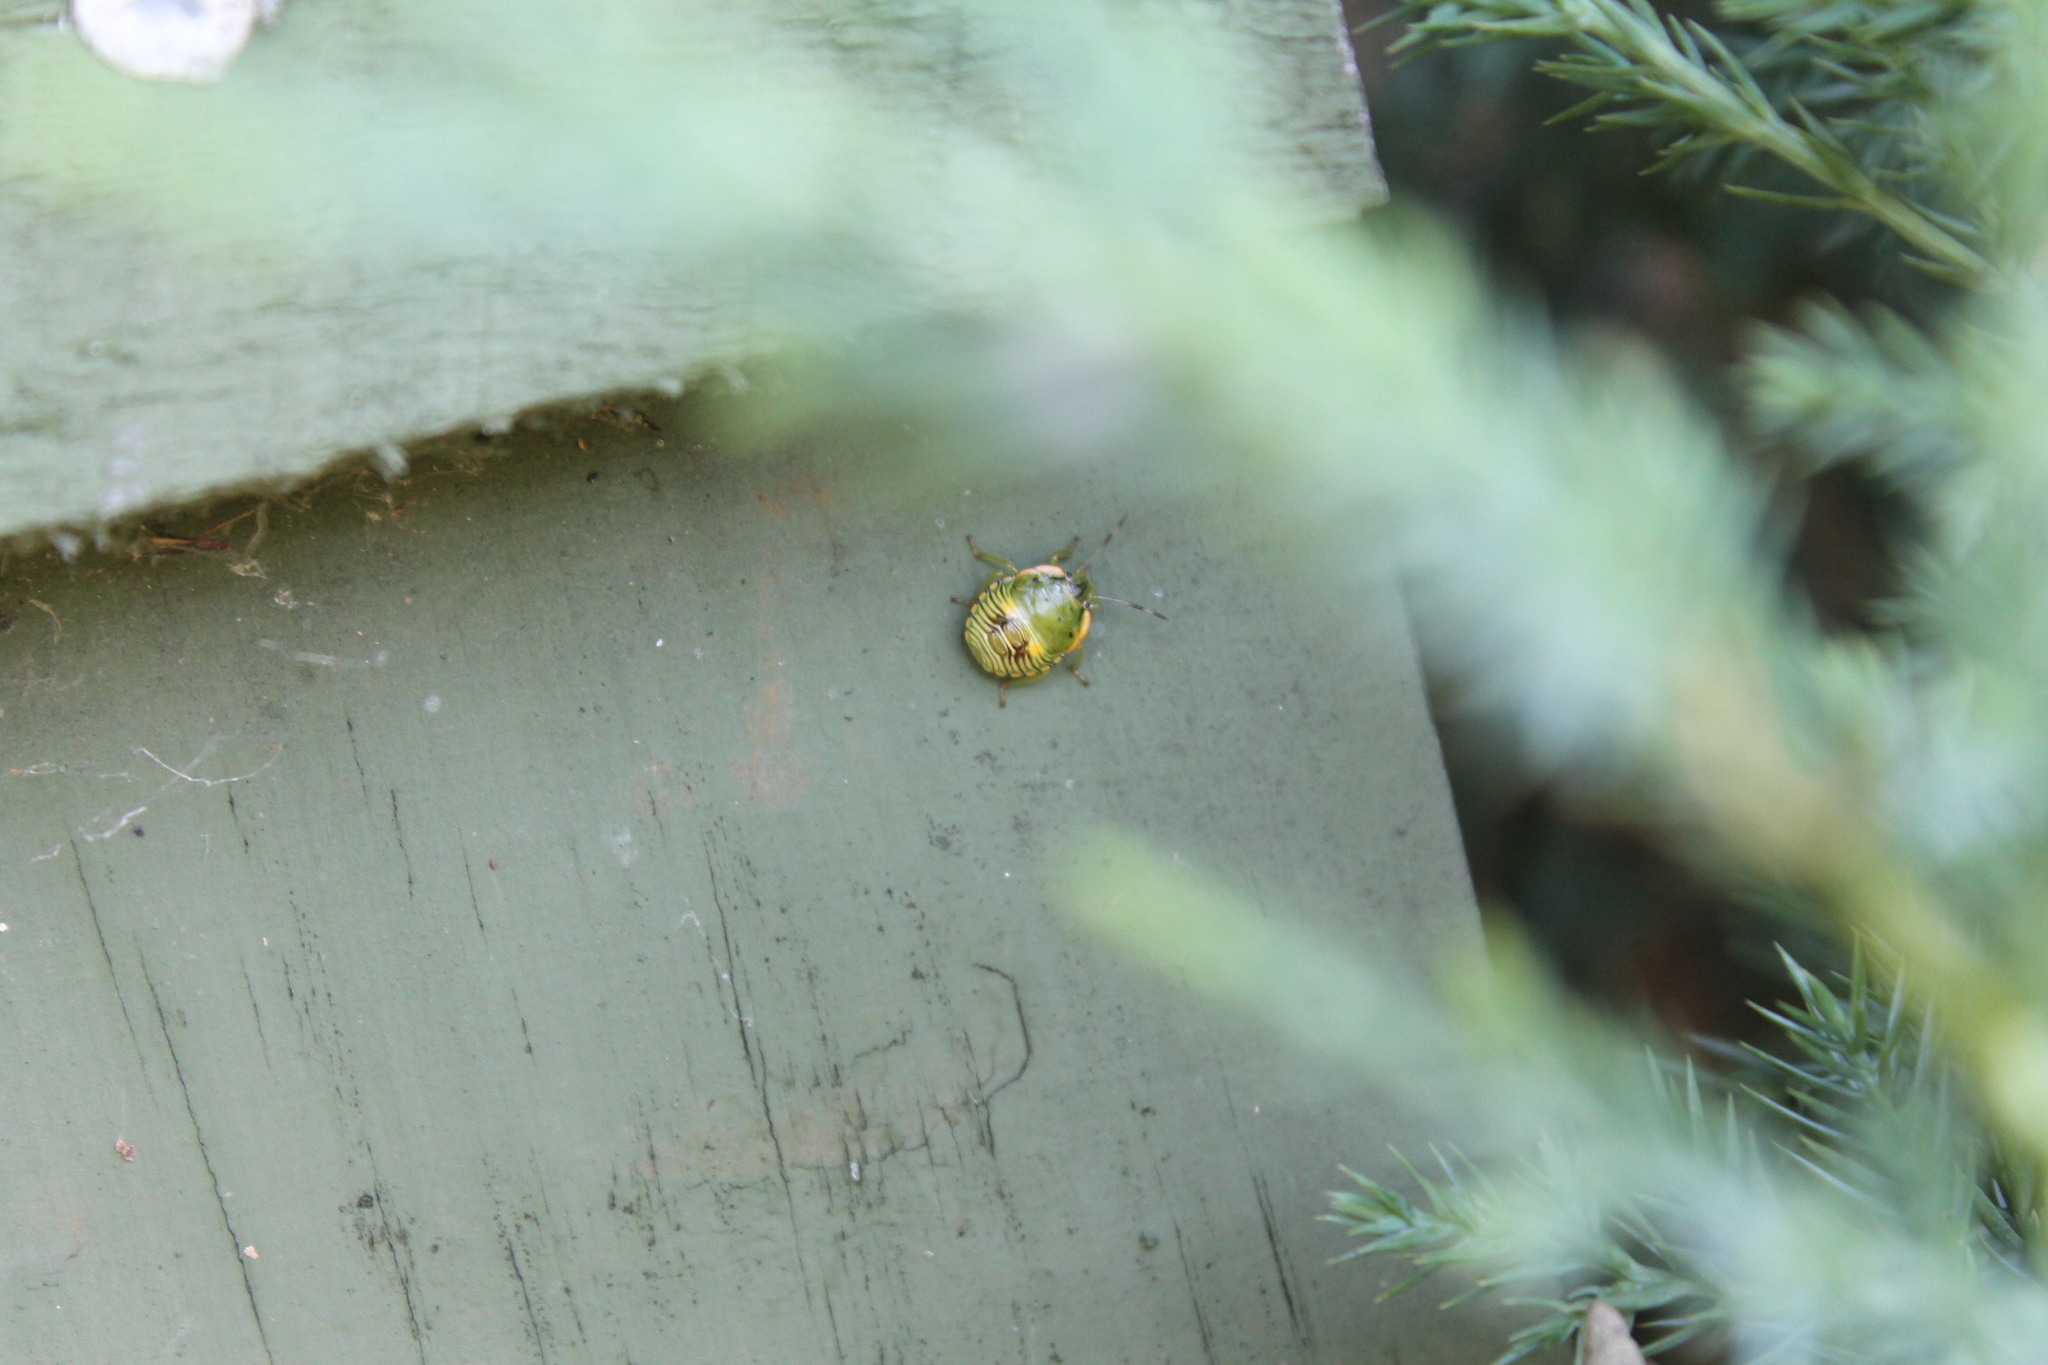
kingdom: Animalia
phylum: Arthropoda
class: Insecta
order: Hemiptera
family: Pentatomidae
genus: Chinavia
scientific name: Chinavia hilaris
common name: Green stink bug
